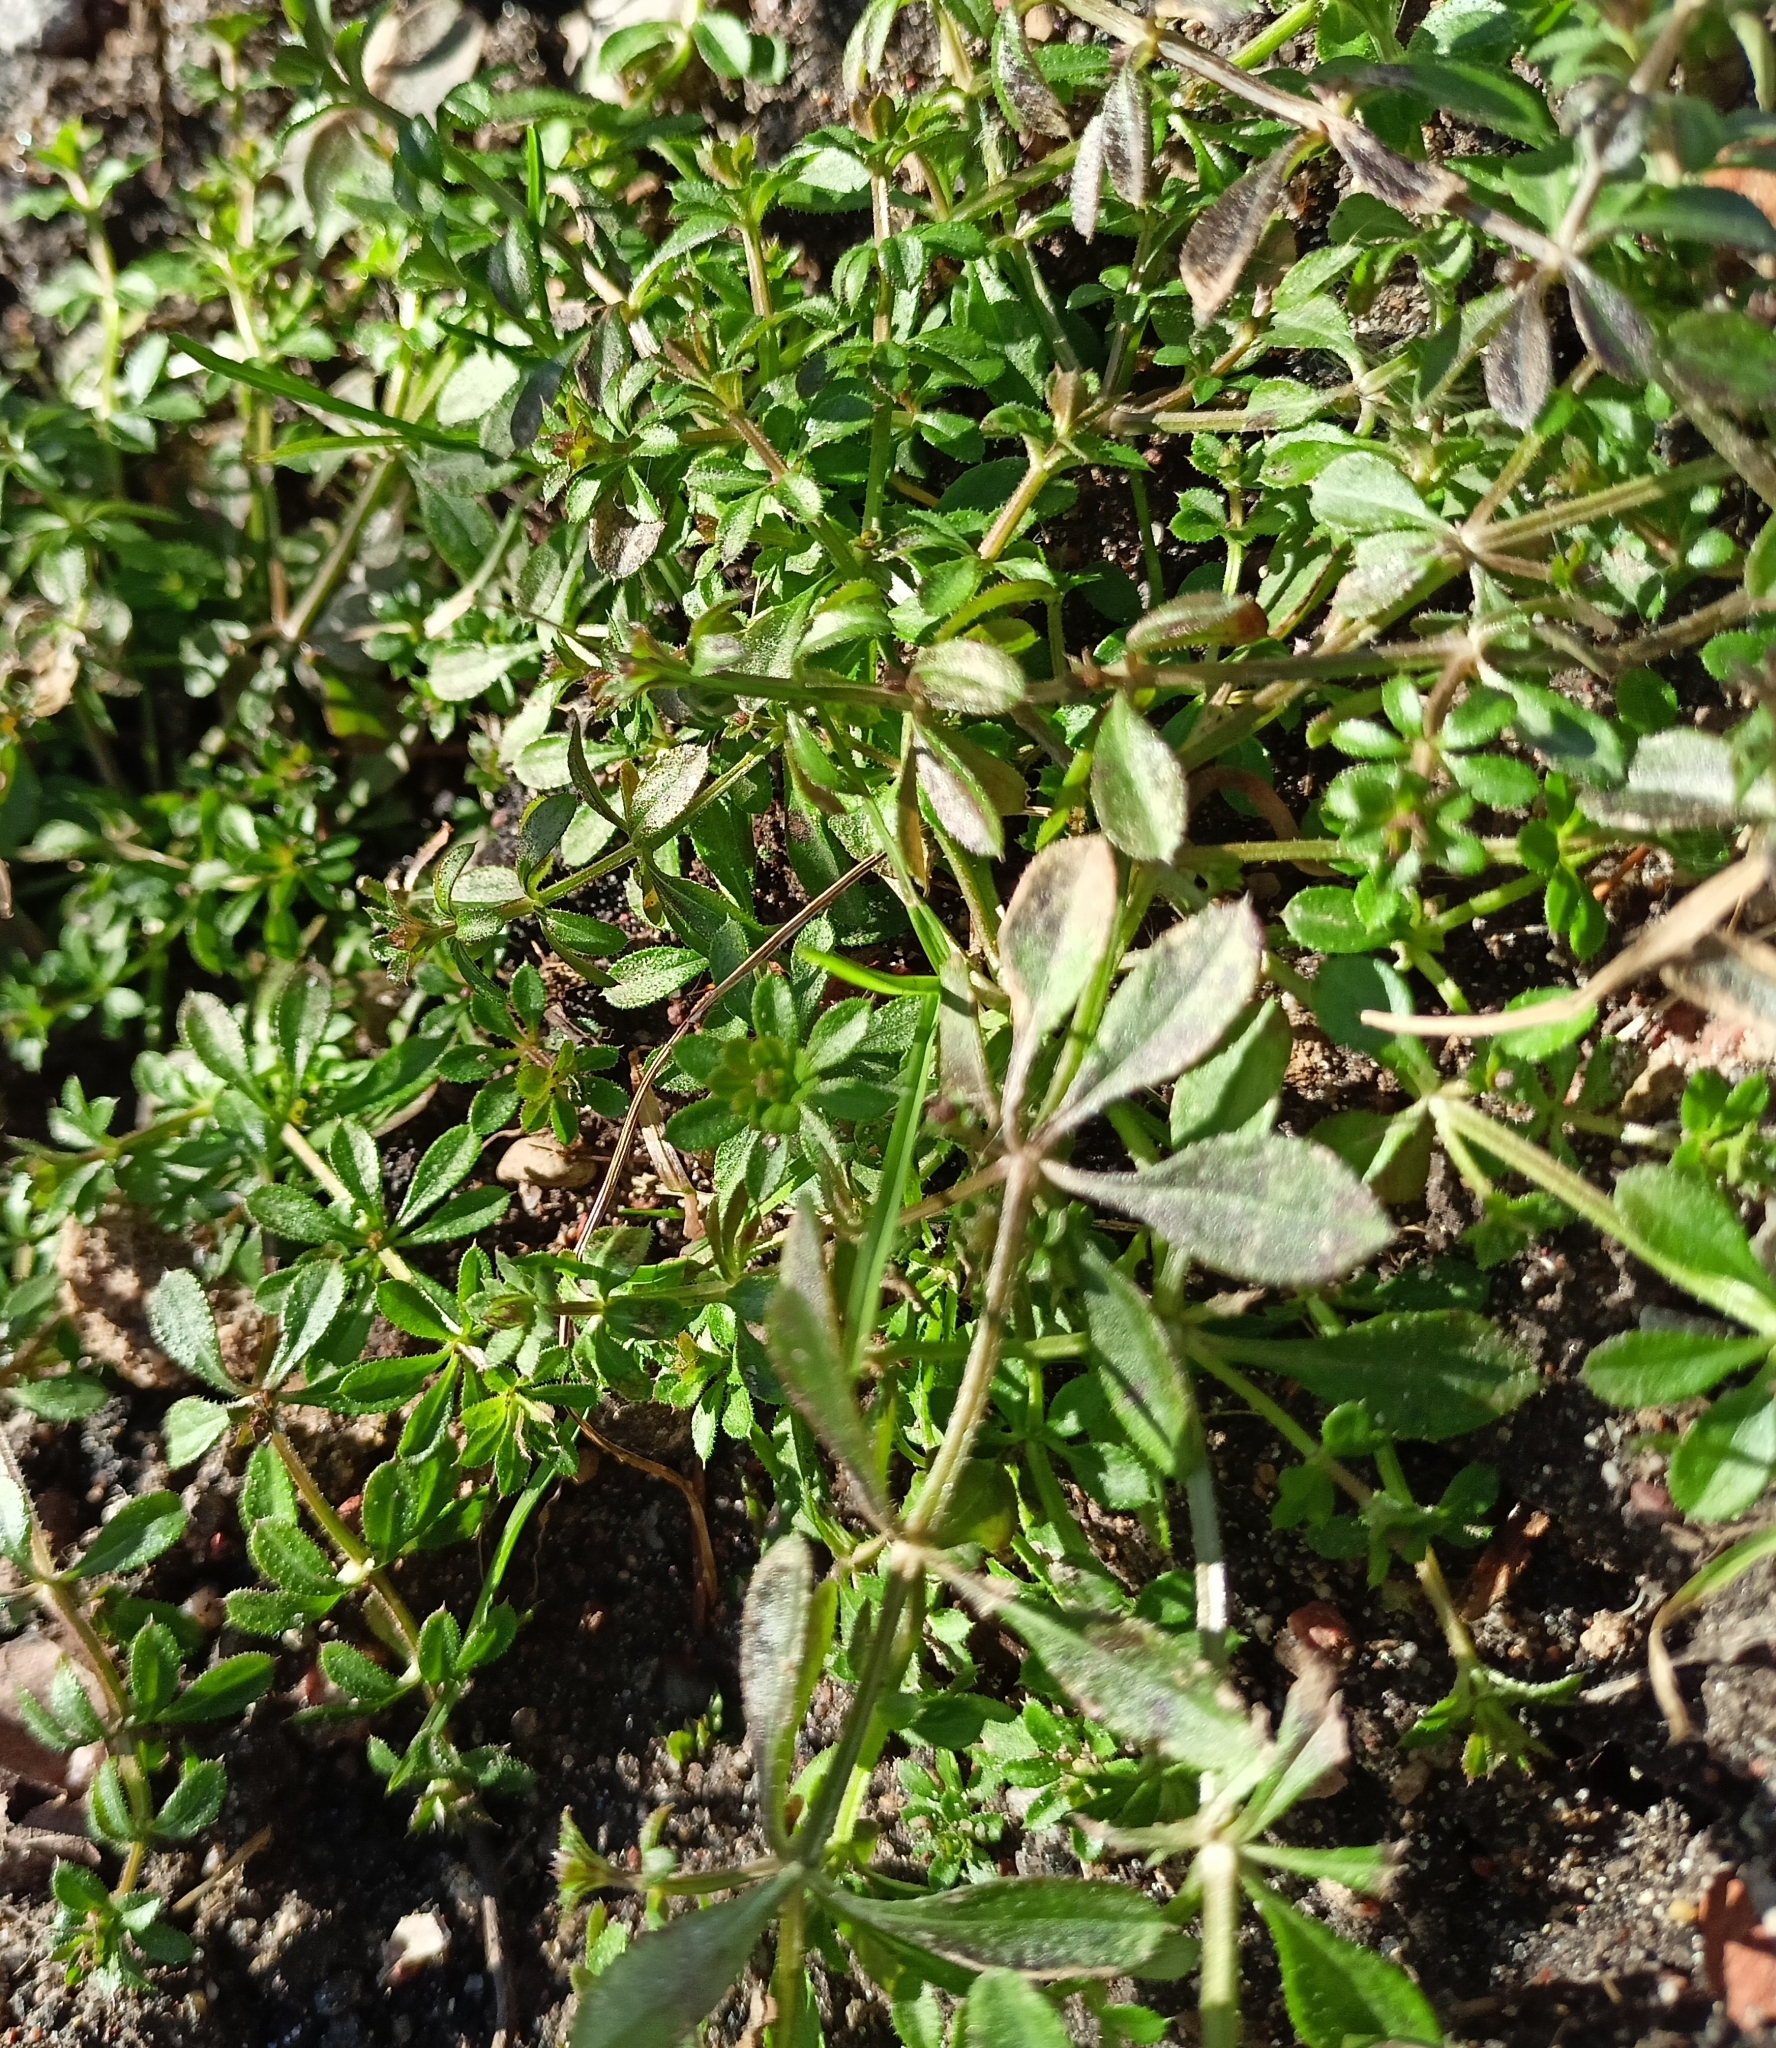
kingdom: Plantae
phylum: Tracheophyta
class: Magnoliopsida
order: Gentianales
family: Rubiaceae
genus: Galium
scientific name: Galium aparine
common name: Cleavers
